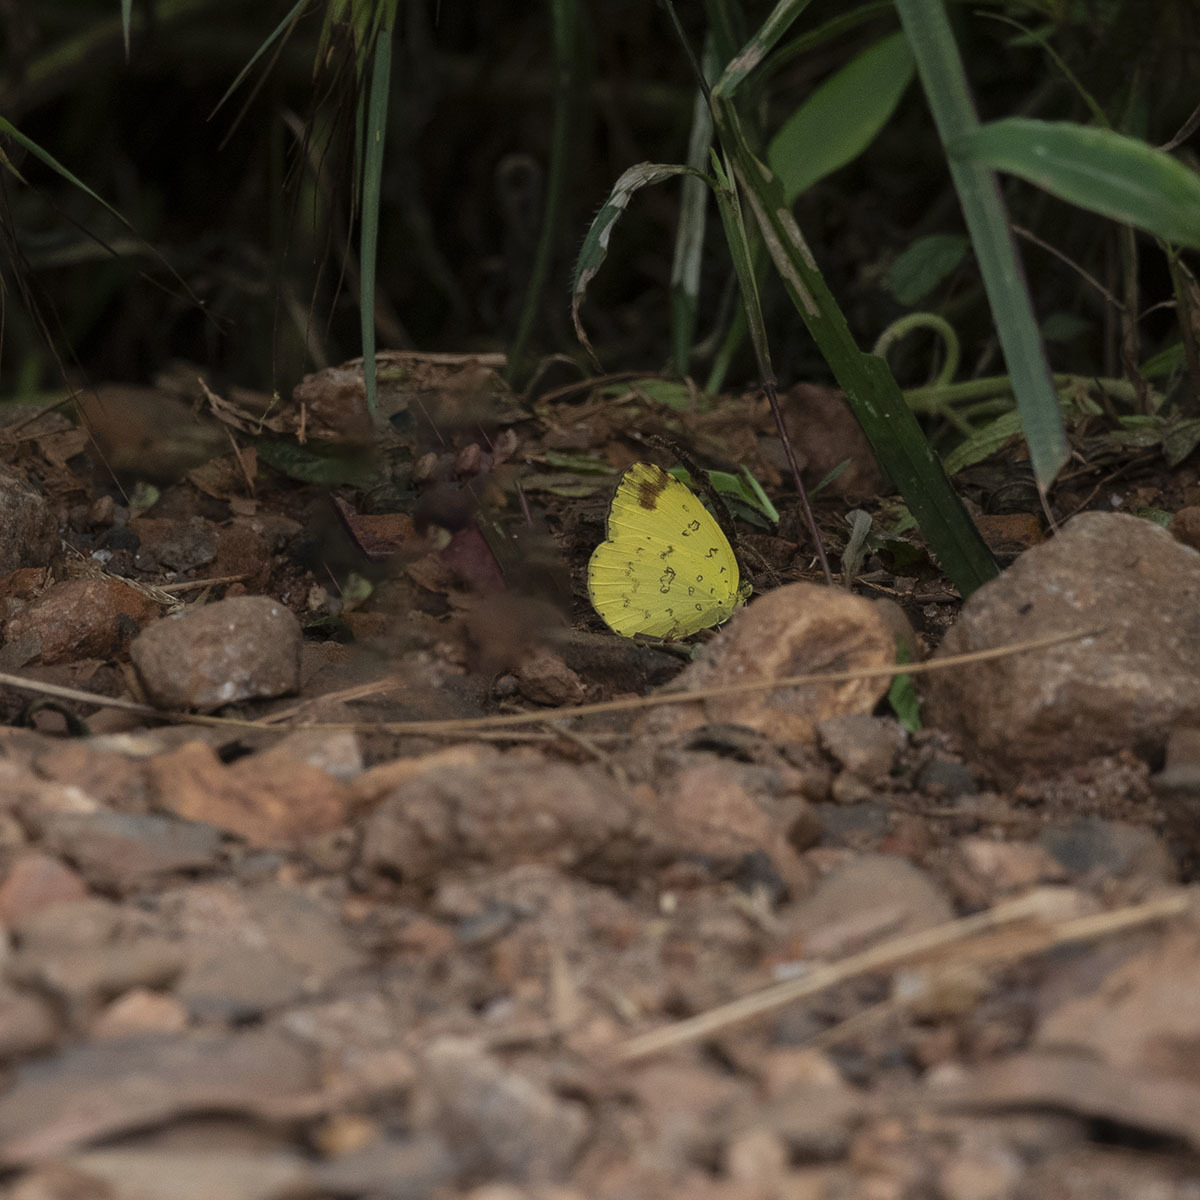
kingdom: Animalia
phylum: Arthropoda
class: Insecta
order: Lepidoptera
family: Pieridae
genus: Eurema
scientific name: Eurema blanda
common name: Three-spot grass yellow
